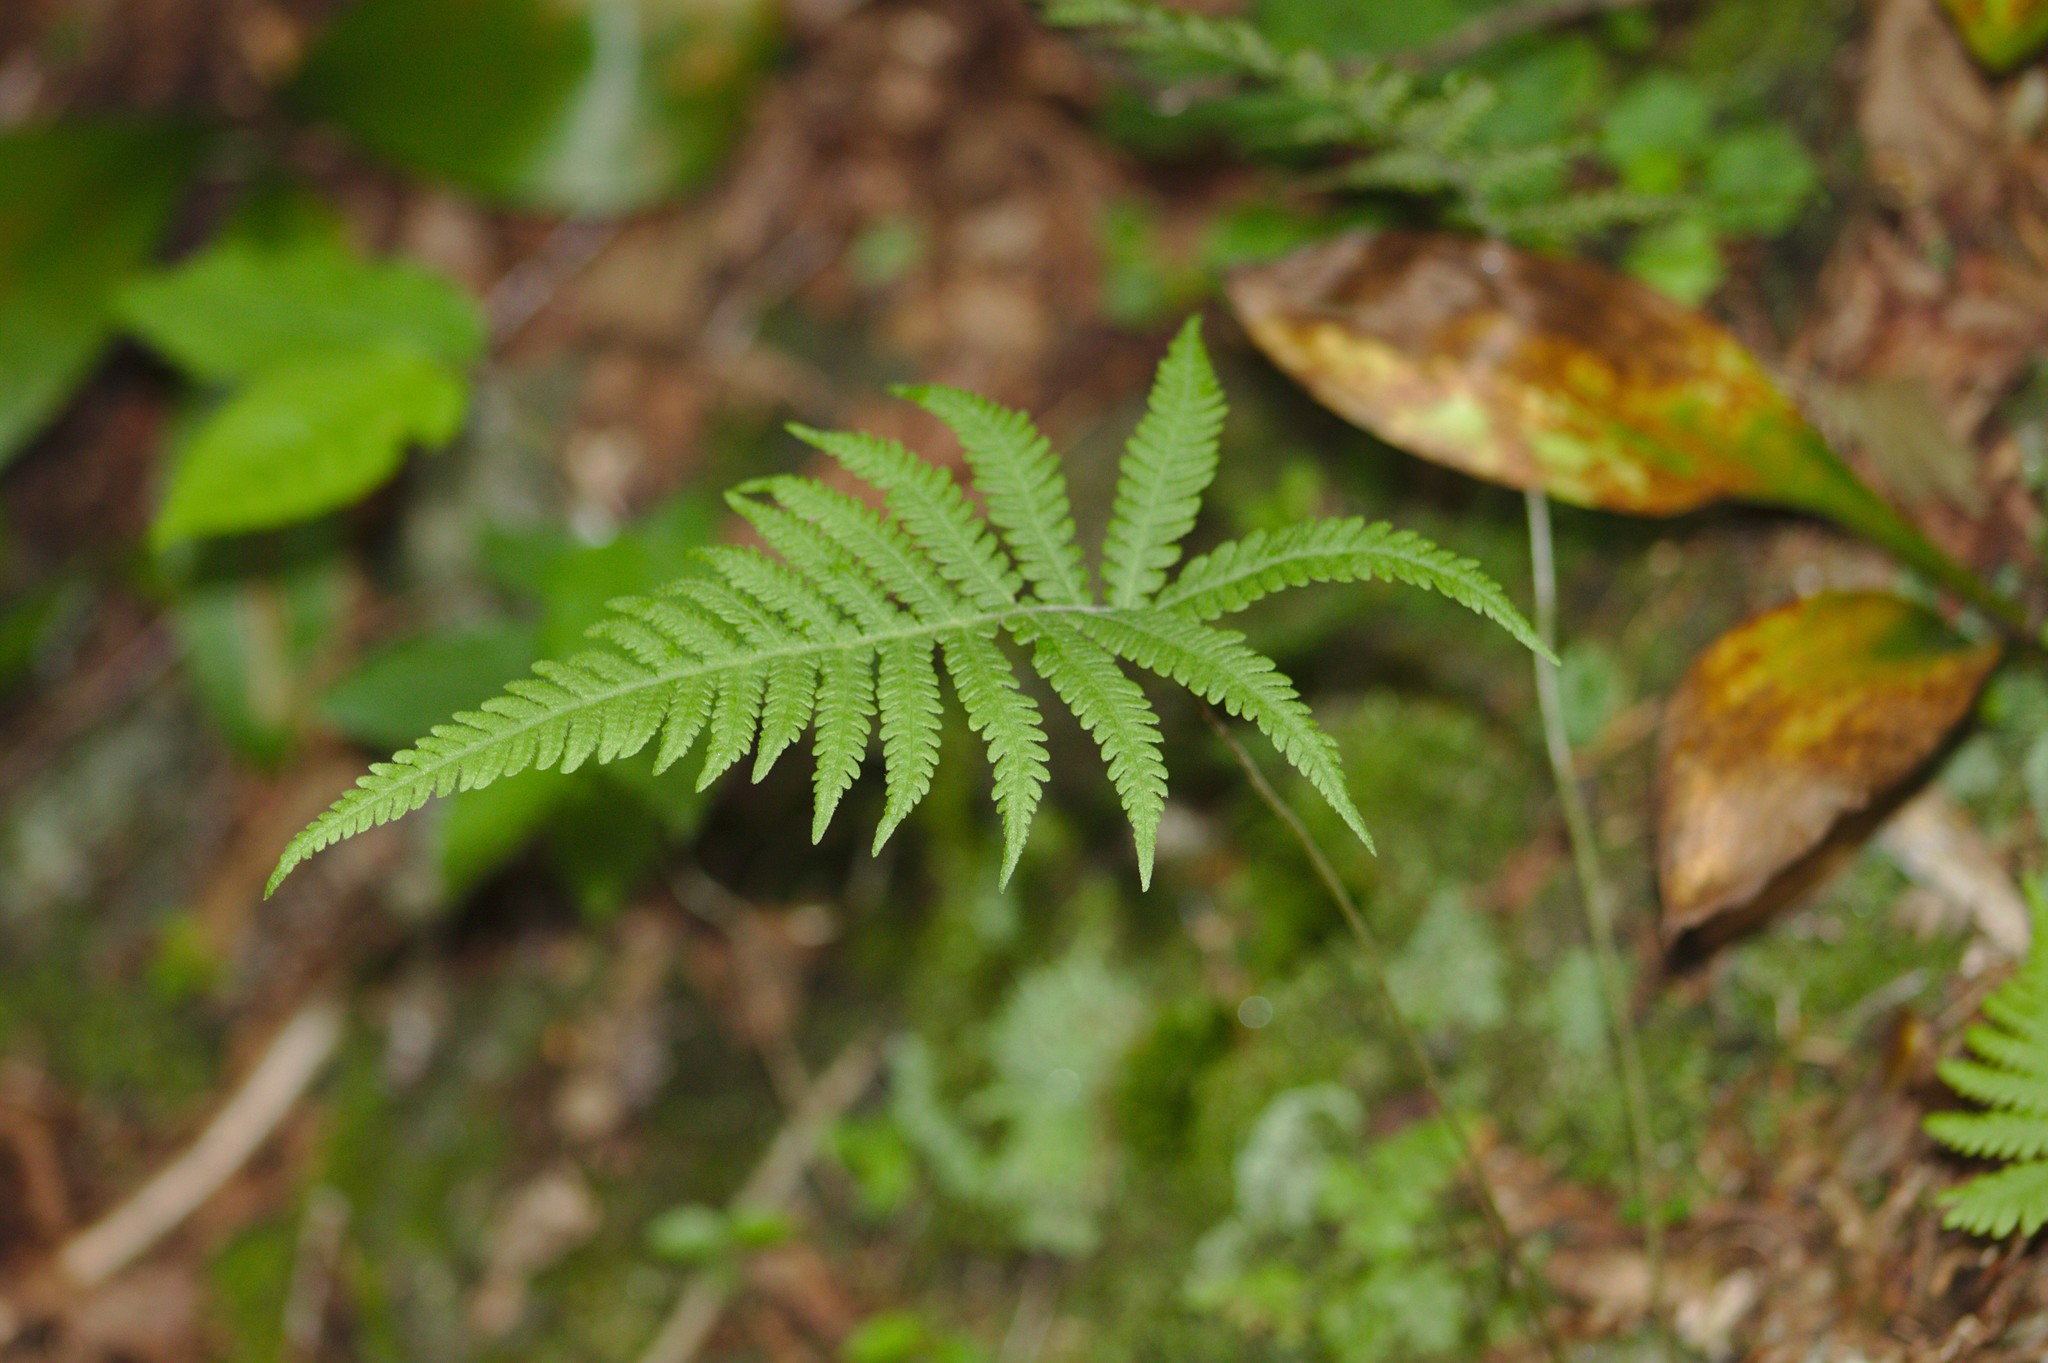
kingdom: Plantae
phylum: Tracheophyta
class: Polypodiopsida
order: Polypodiales
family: Thelypteridaceae
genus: Phegopteris
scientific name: Phegopteris connectilis
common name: Beech fern
